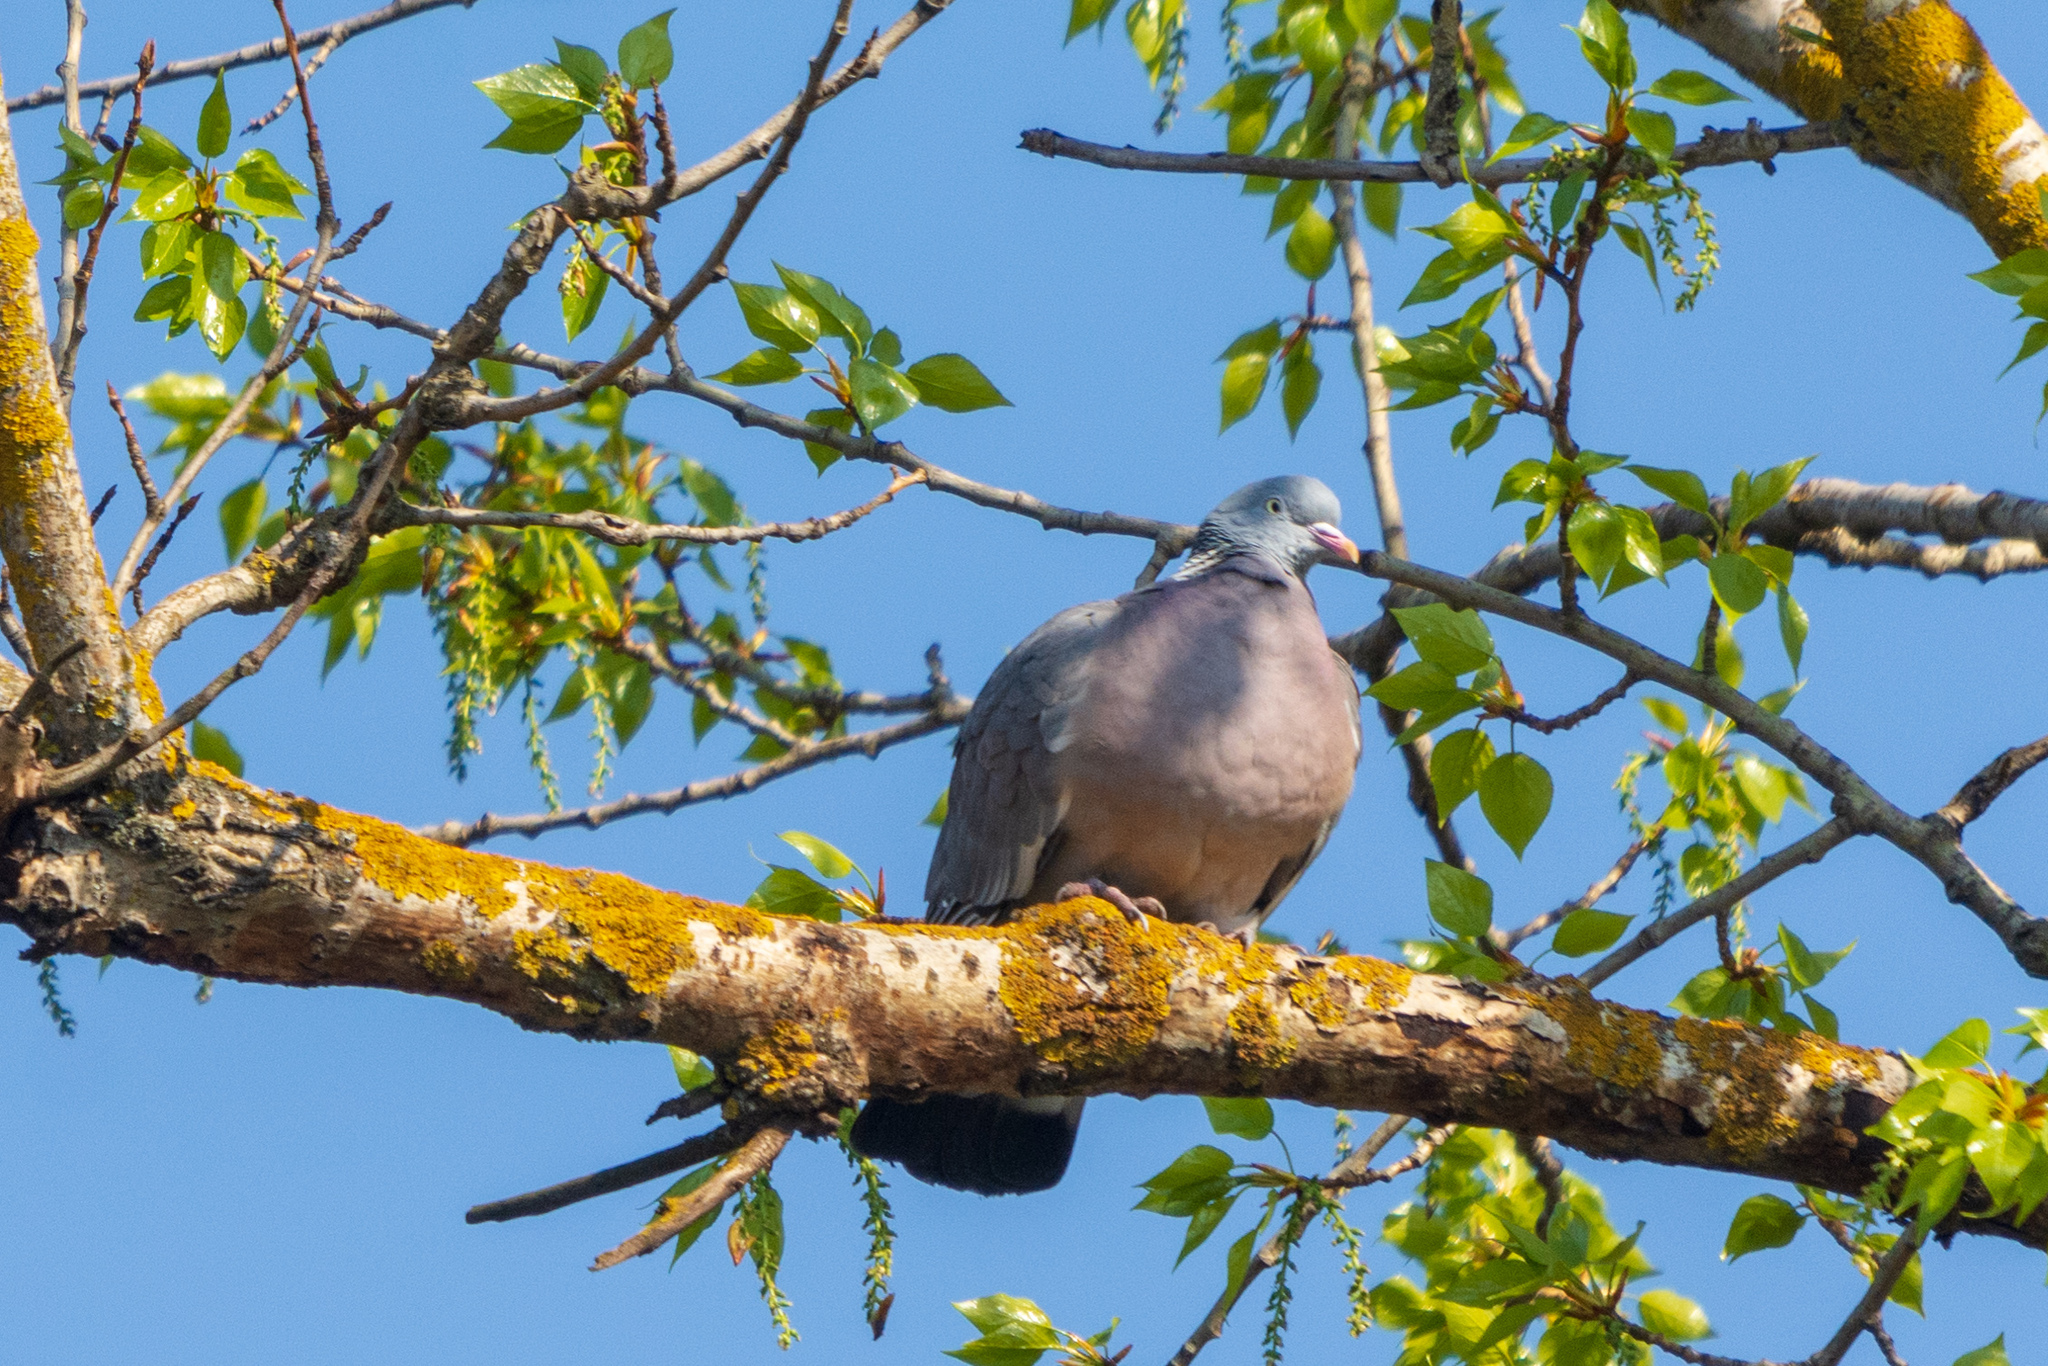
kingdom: Animalia
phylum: Chordata
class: Aves
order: Columbiformes
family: Columbidae
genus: Columba
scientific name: Columba palumbus
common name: Common wood pigeon
